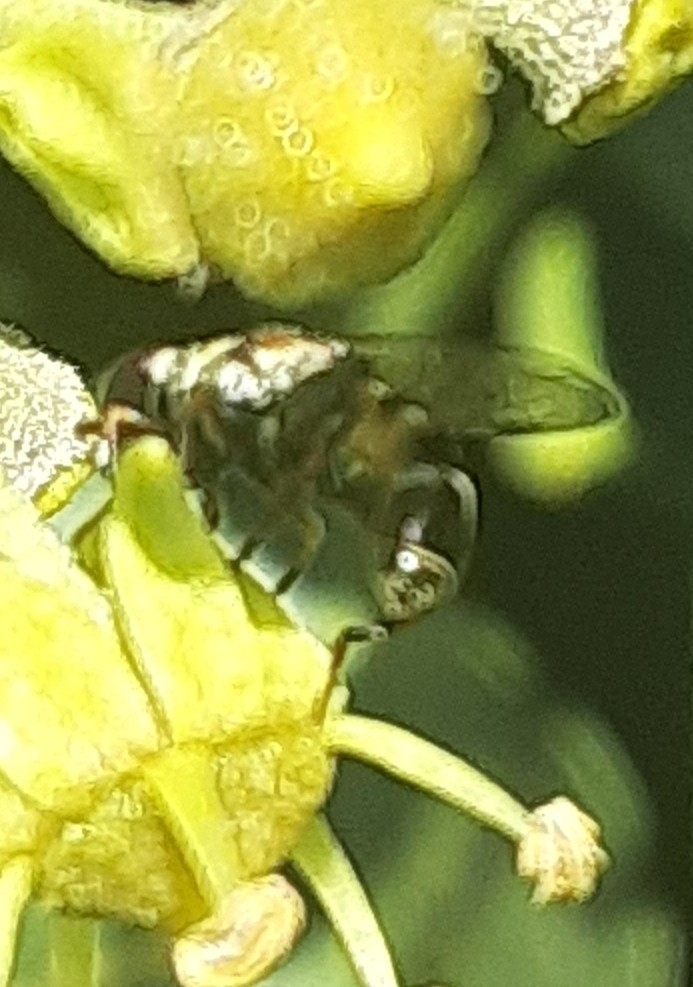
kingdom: Animalia
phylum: Arthropoda
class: Insecta
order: Diptera
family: Syrphidae
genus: Syritta
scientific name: Syritta pipiens
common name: Hover fly
